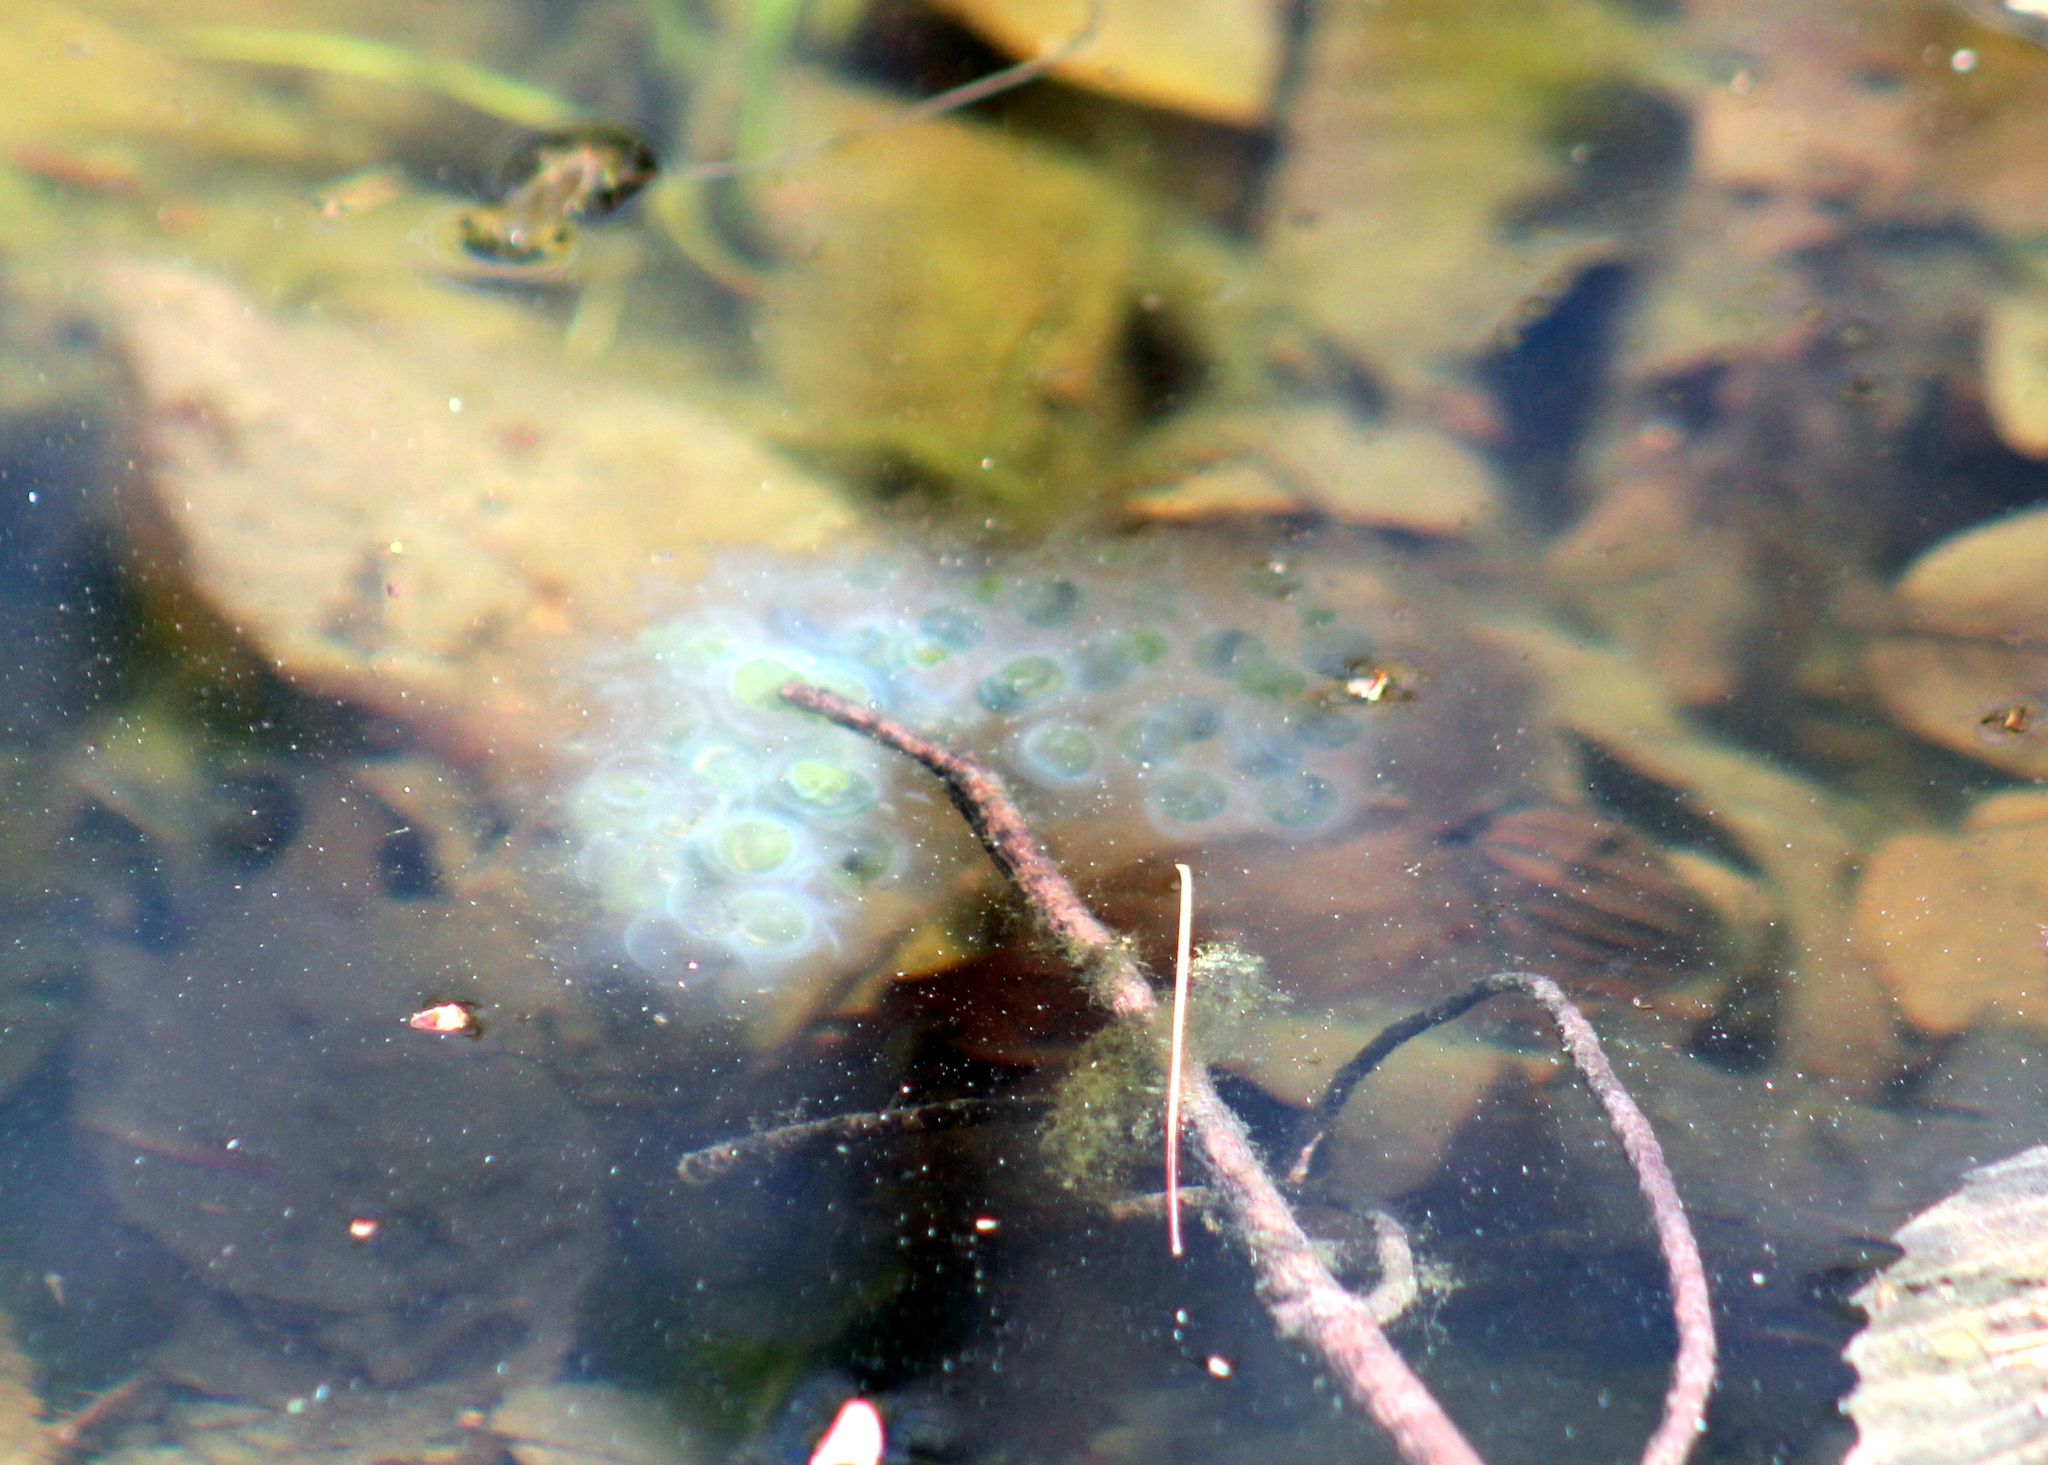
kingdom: Animalia
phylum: Chordata
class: Amphibia
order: Caudata
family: Ambystomatidae
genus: Ambystoma
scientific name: Ambystoma maculatum
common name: Spotted salamander
